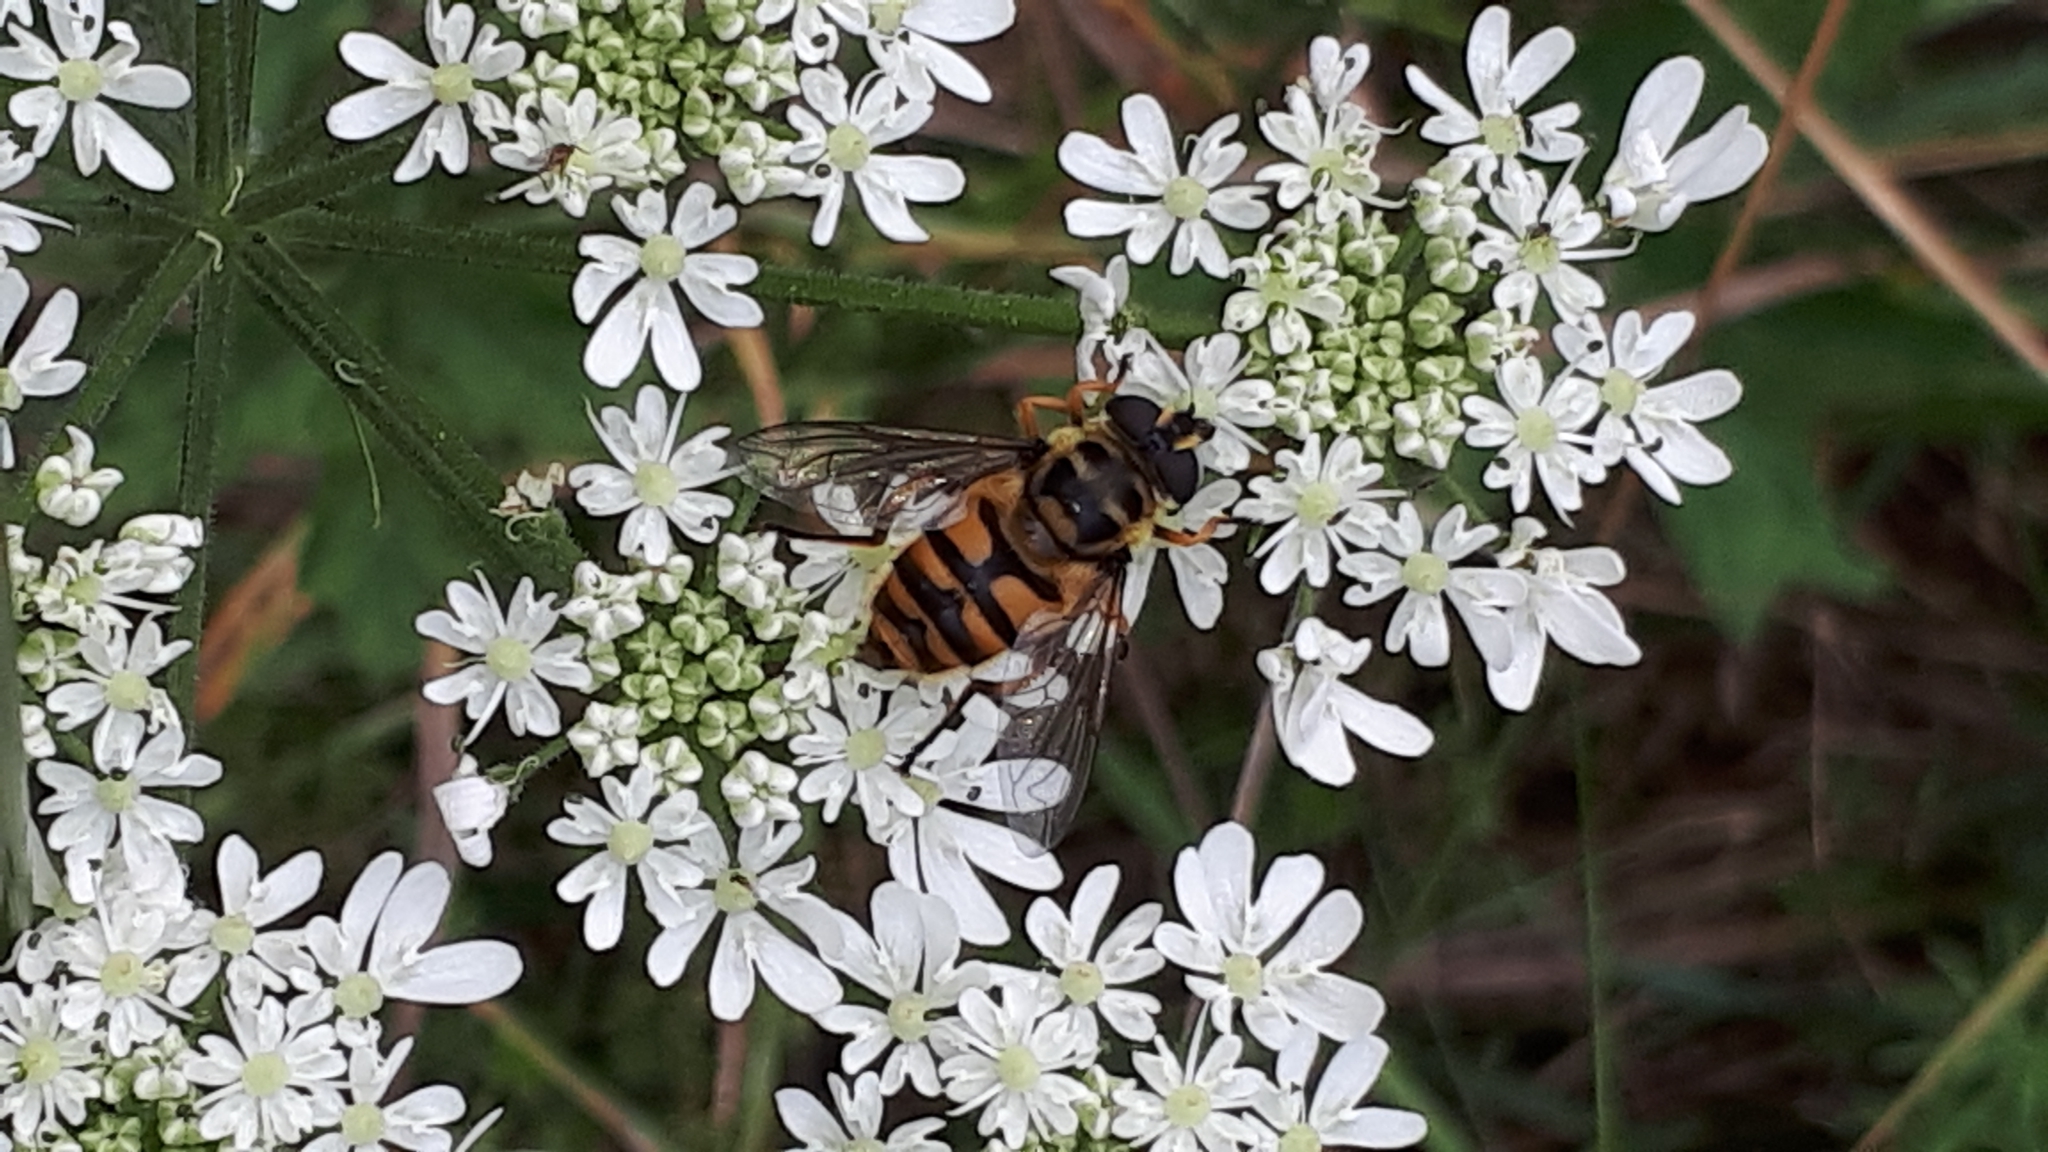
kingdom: Animalia
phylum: Arthropoda
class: Insecta
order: Diptera
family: Syrphidae
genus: Myathropa
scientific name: Myathropa florea
